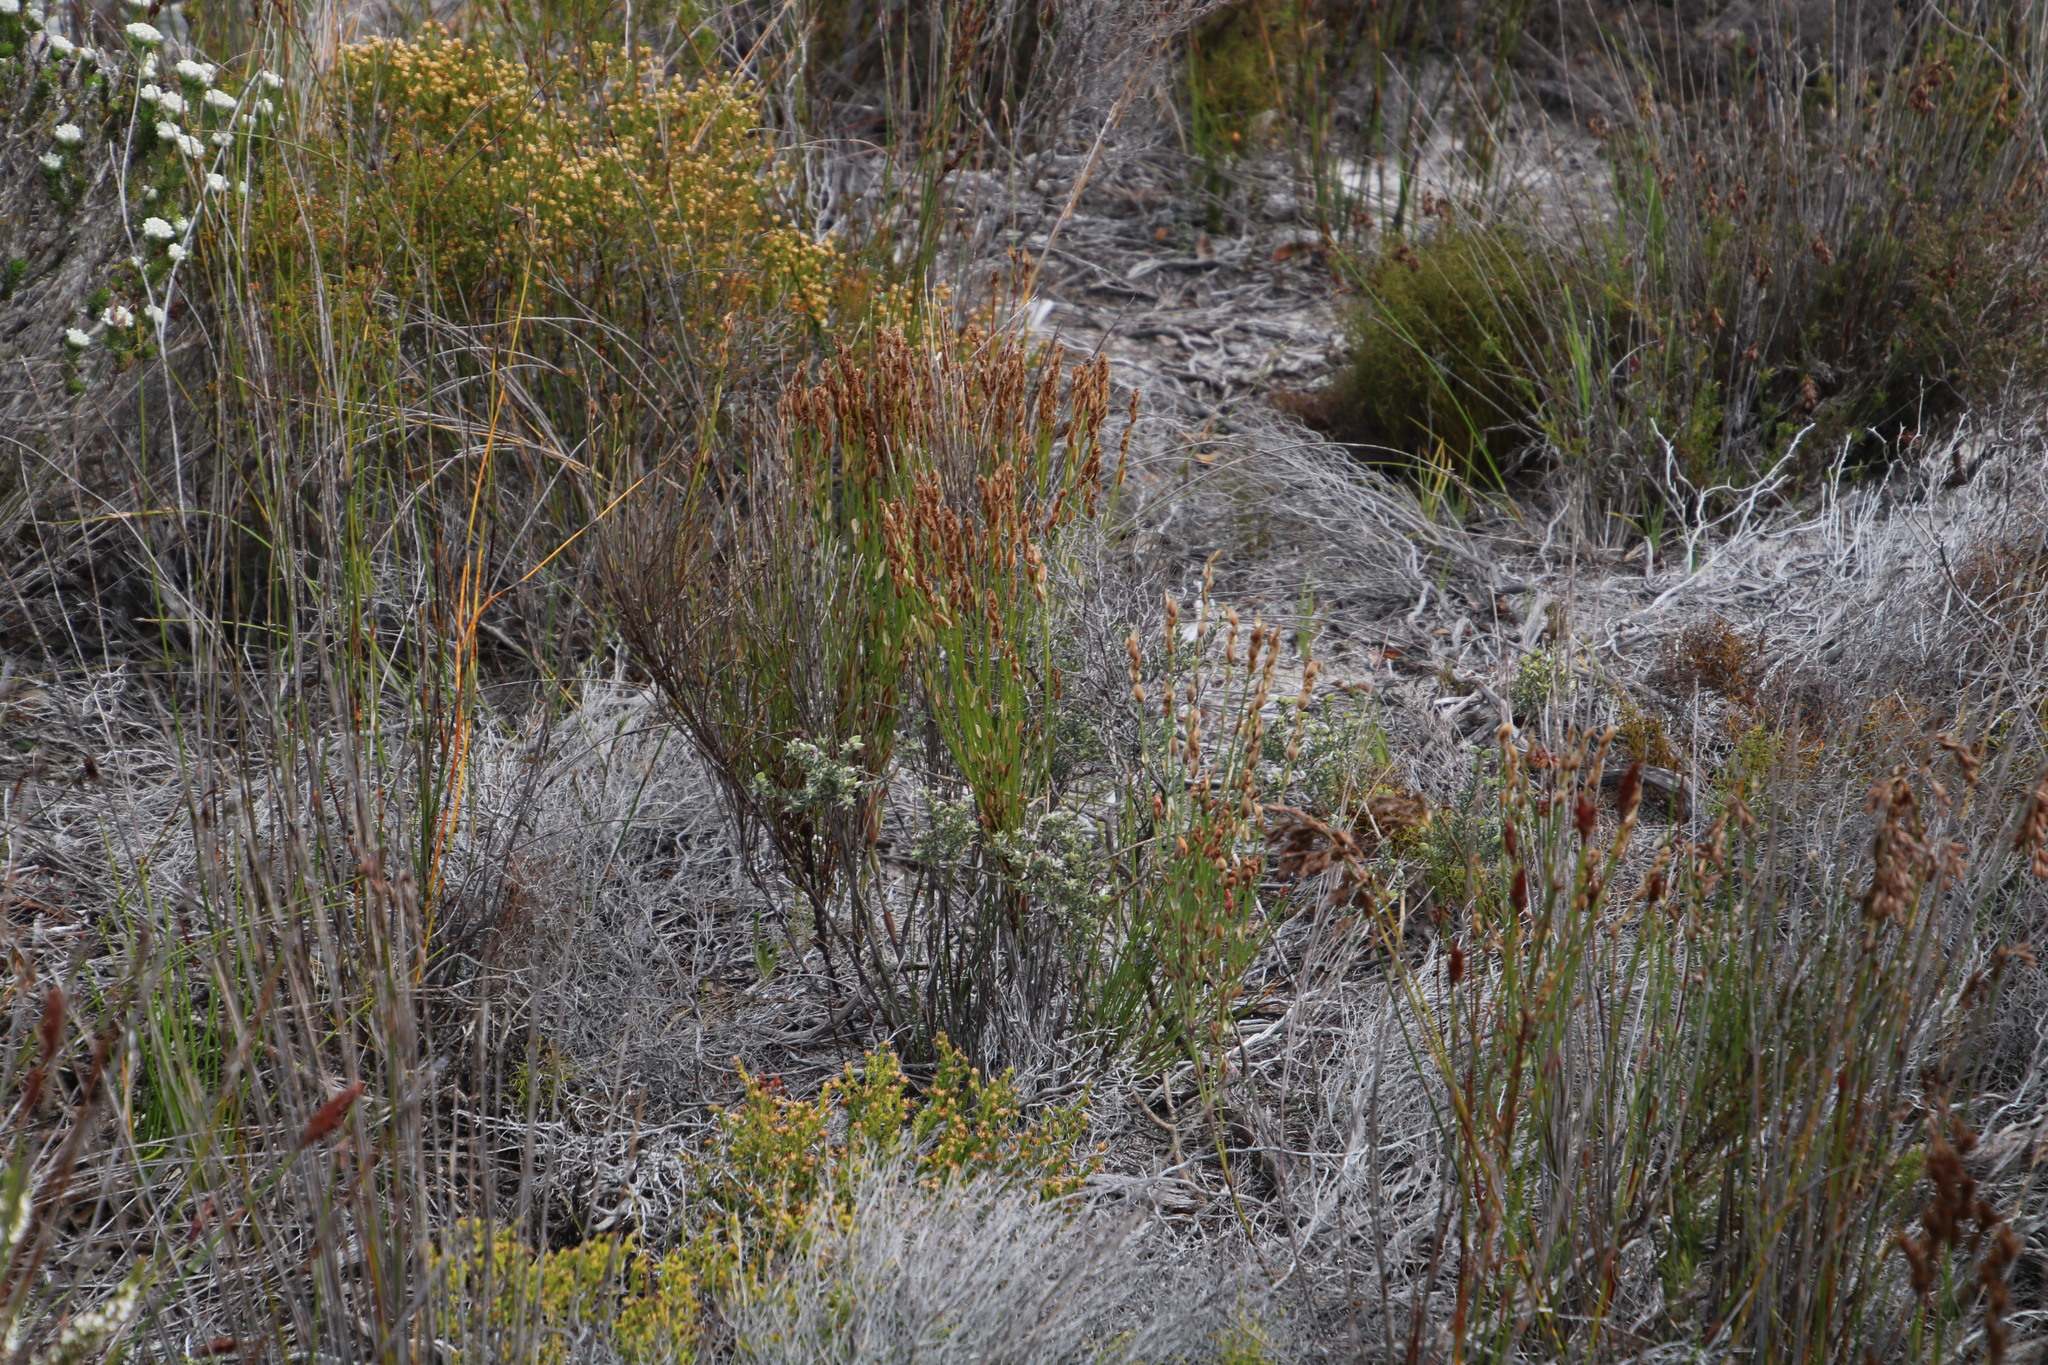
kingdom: Plantae
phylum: Tracheophyta
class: Liliopsida
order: Poales
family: Restionaceae
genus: Elegia
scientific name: Elegia stipularis
